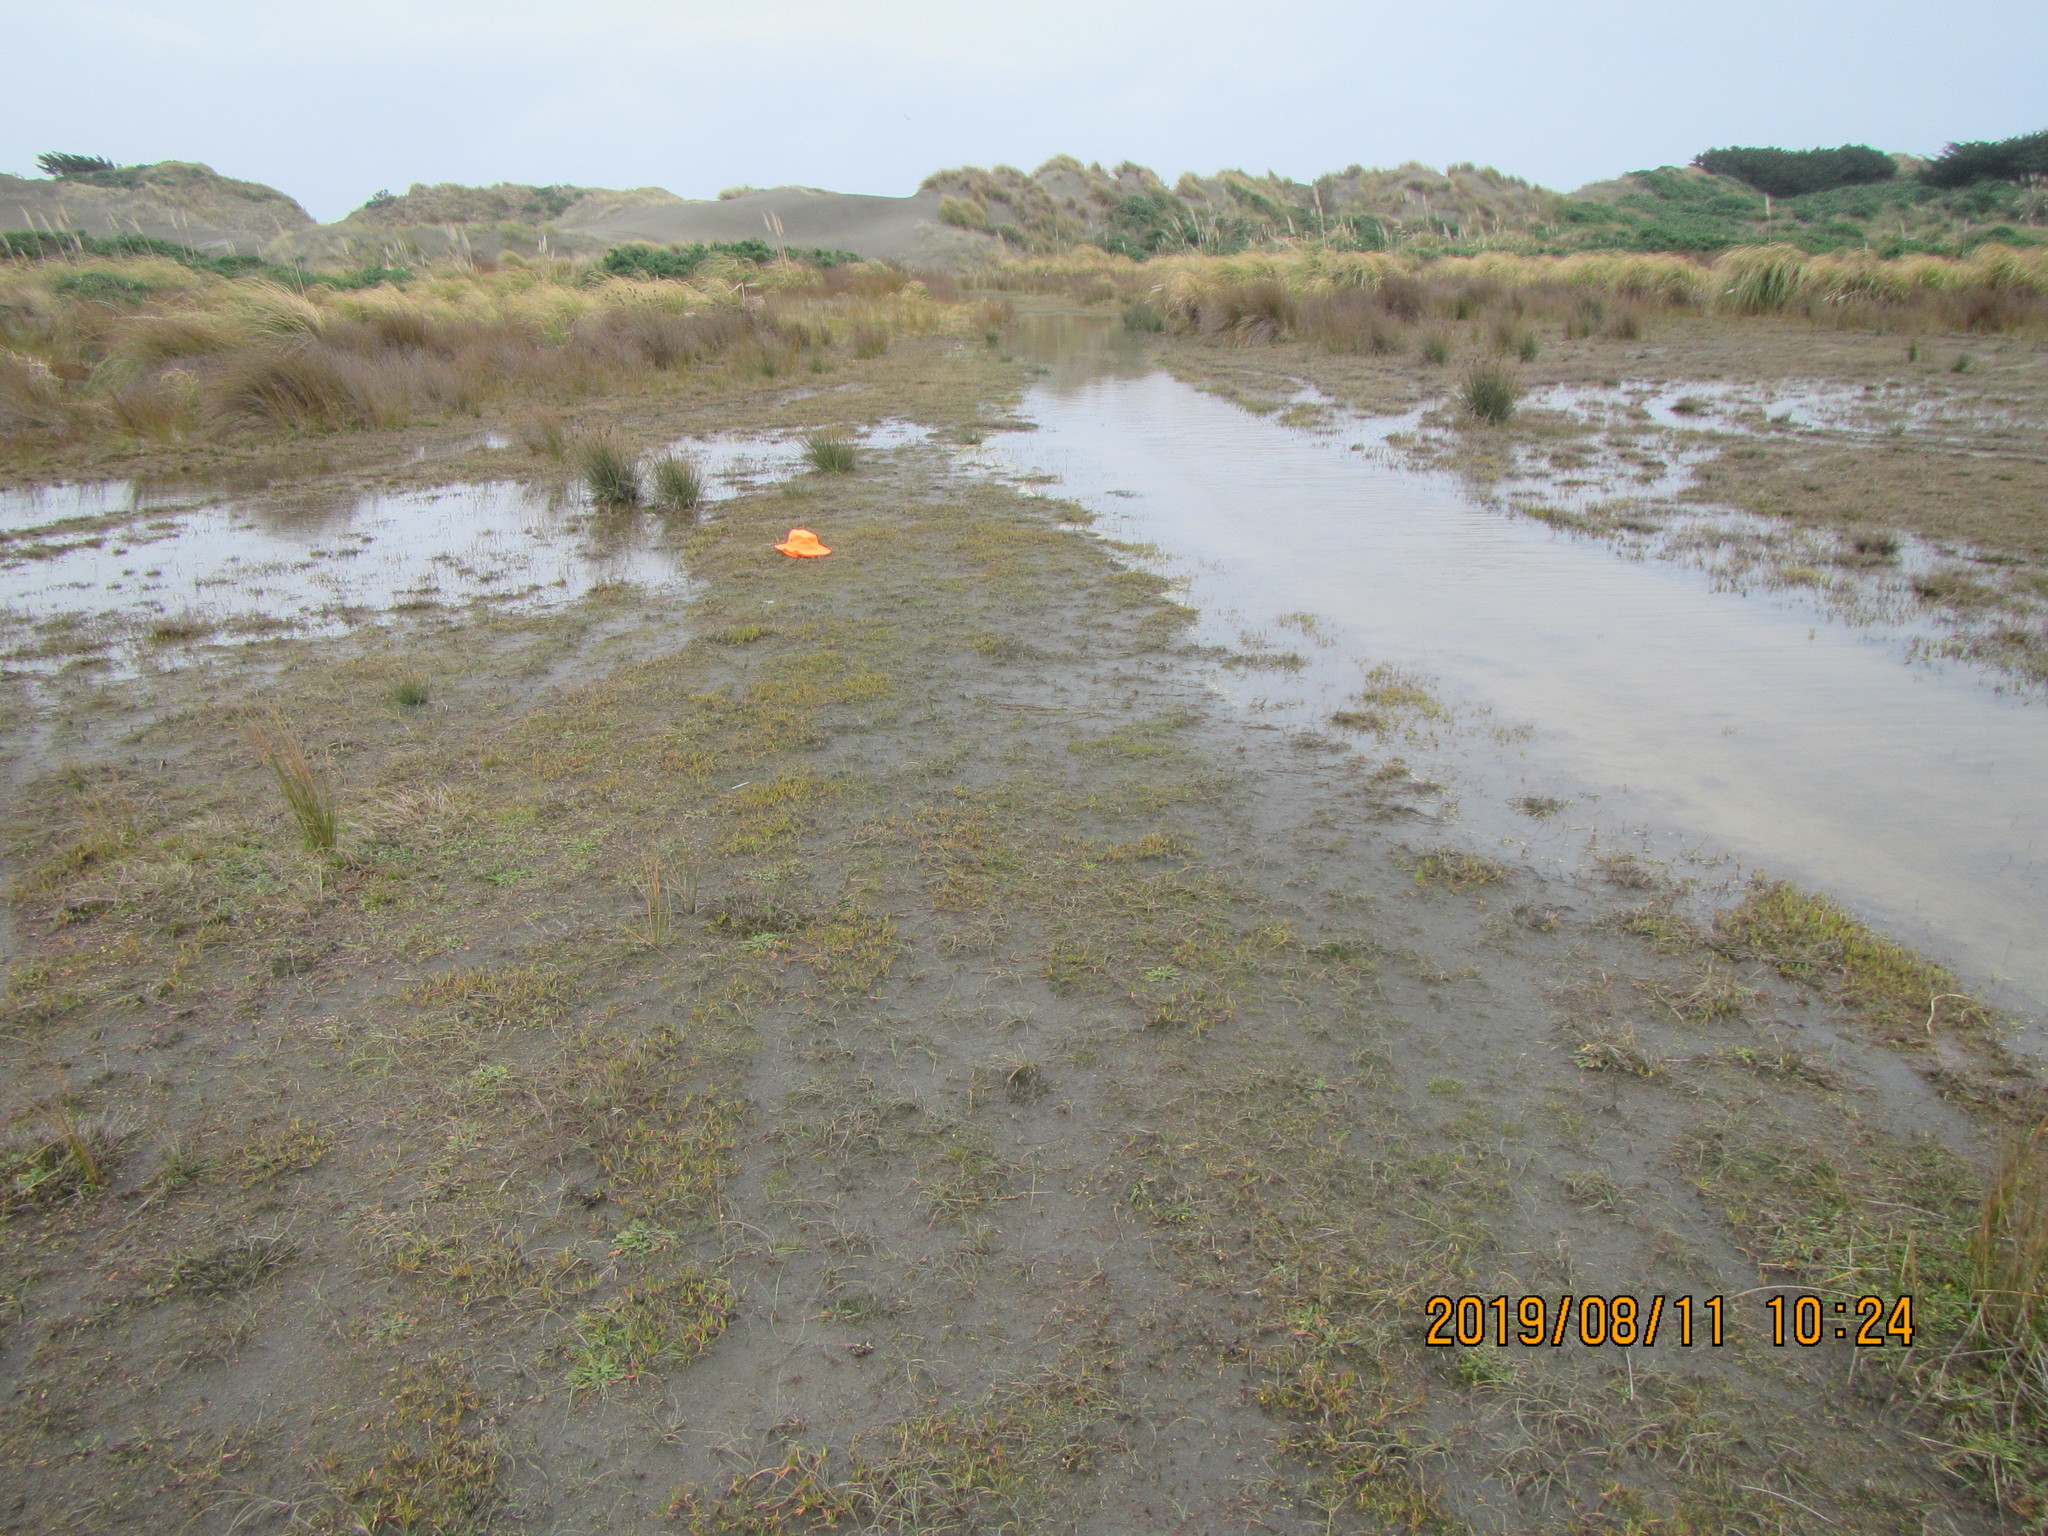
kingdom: Plantae
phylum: Tracheophyta
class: Magnoliopsida
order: Ranunculales
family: Ranunculaceae
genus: Ranunculus
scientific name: Ranunculus acaulis
